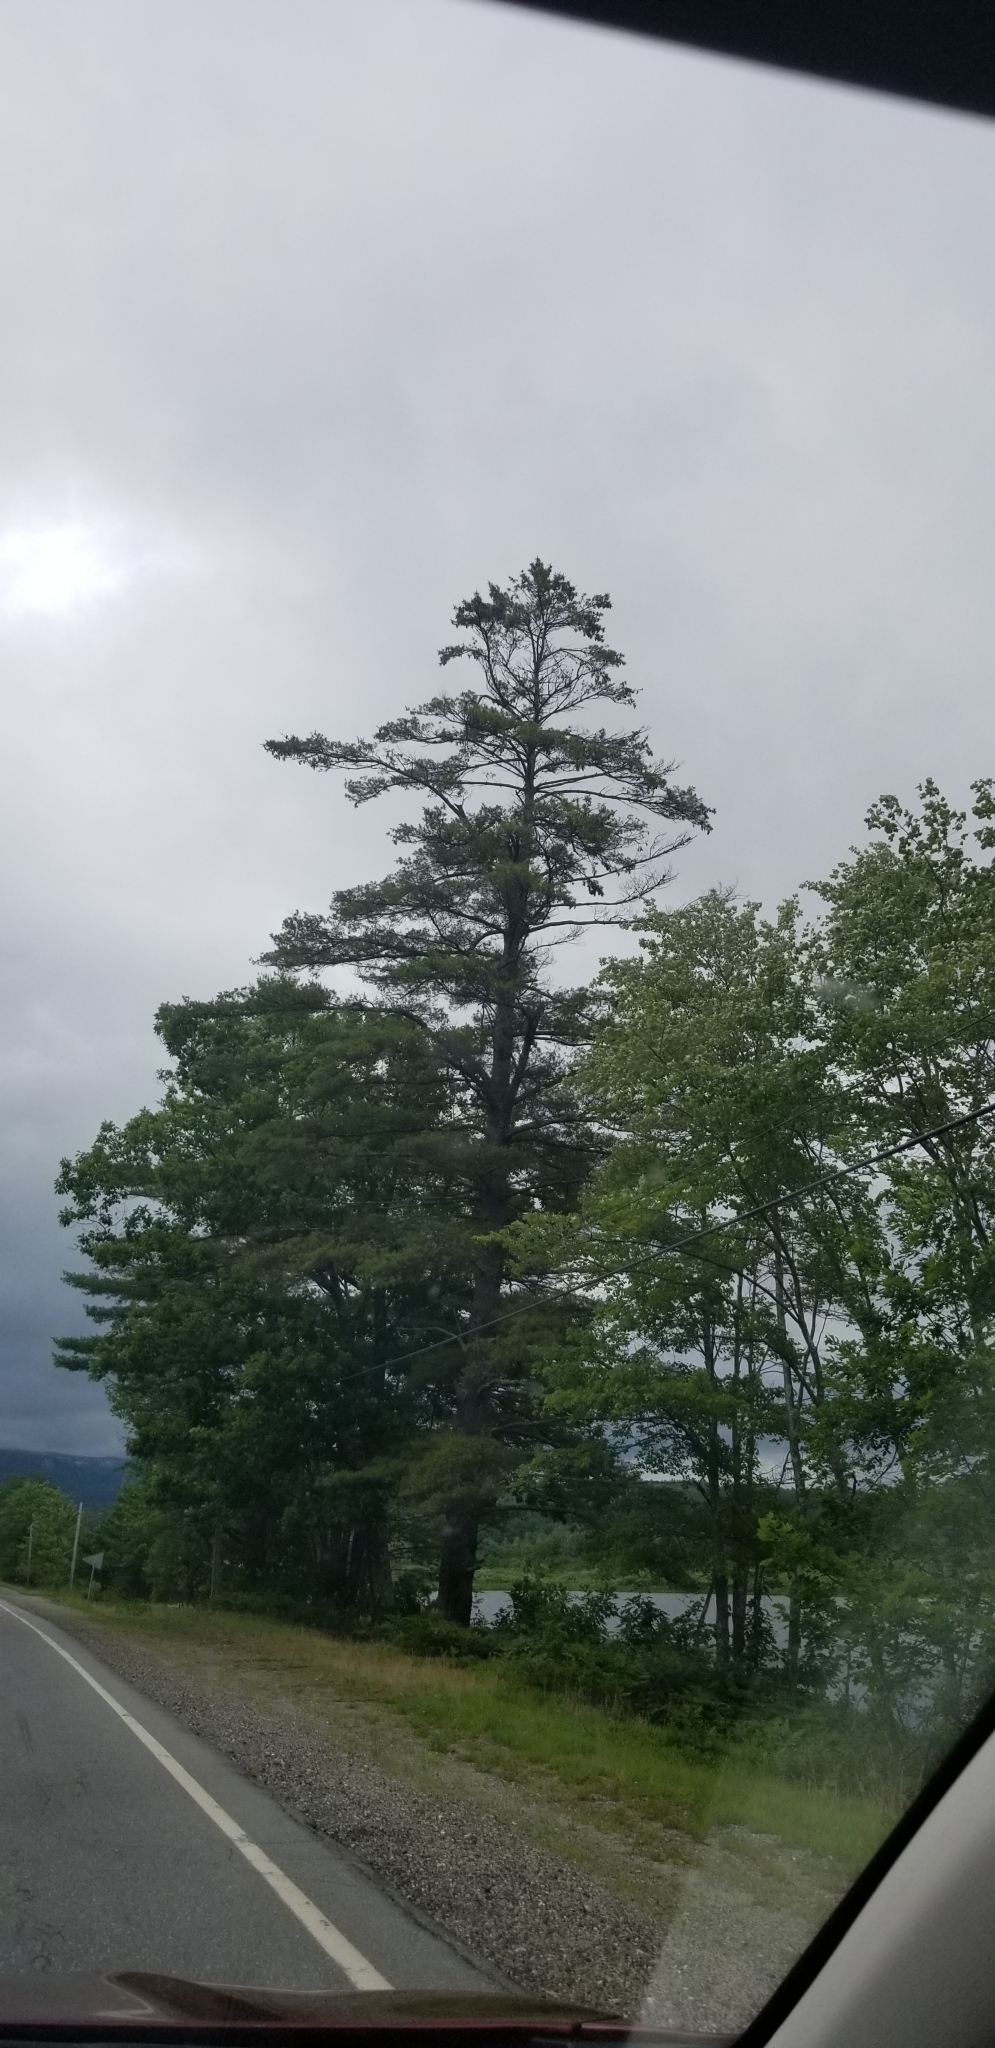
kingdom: Plantae
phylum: Tracheophyta
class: Pinopsida
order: Pinales
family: Pinaceae
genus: Pinus
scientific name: Pinus strobus
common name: Weymouth pine
